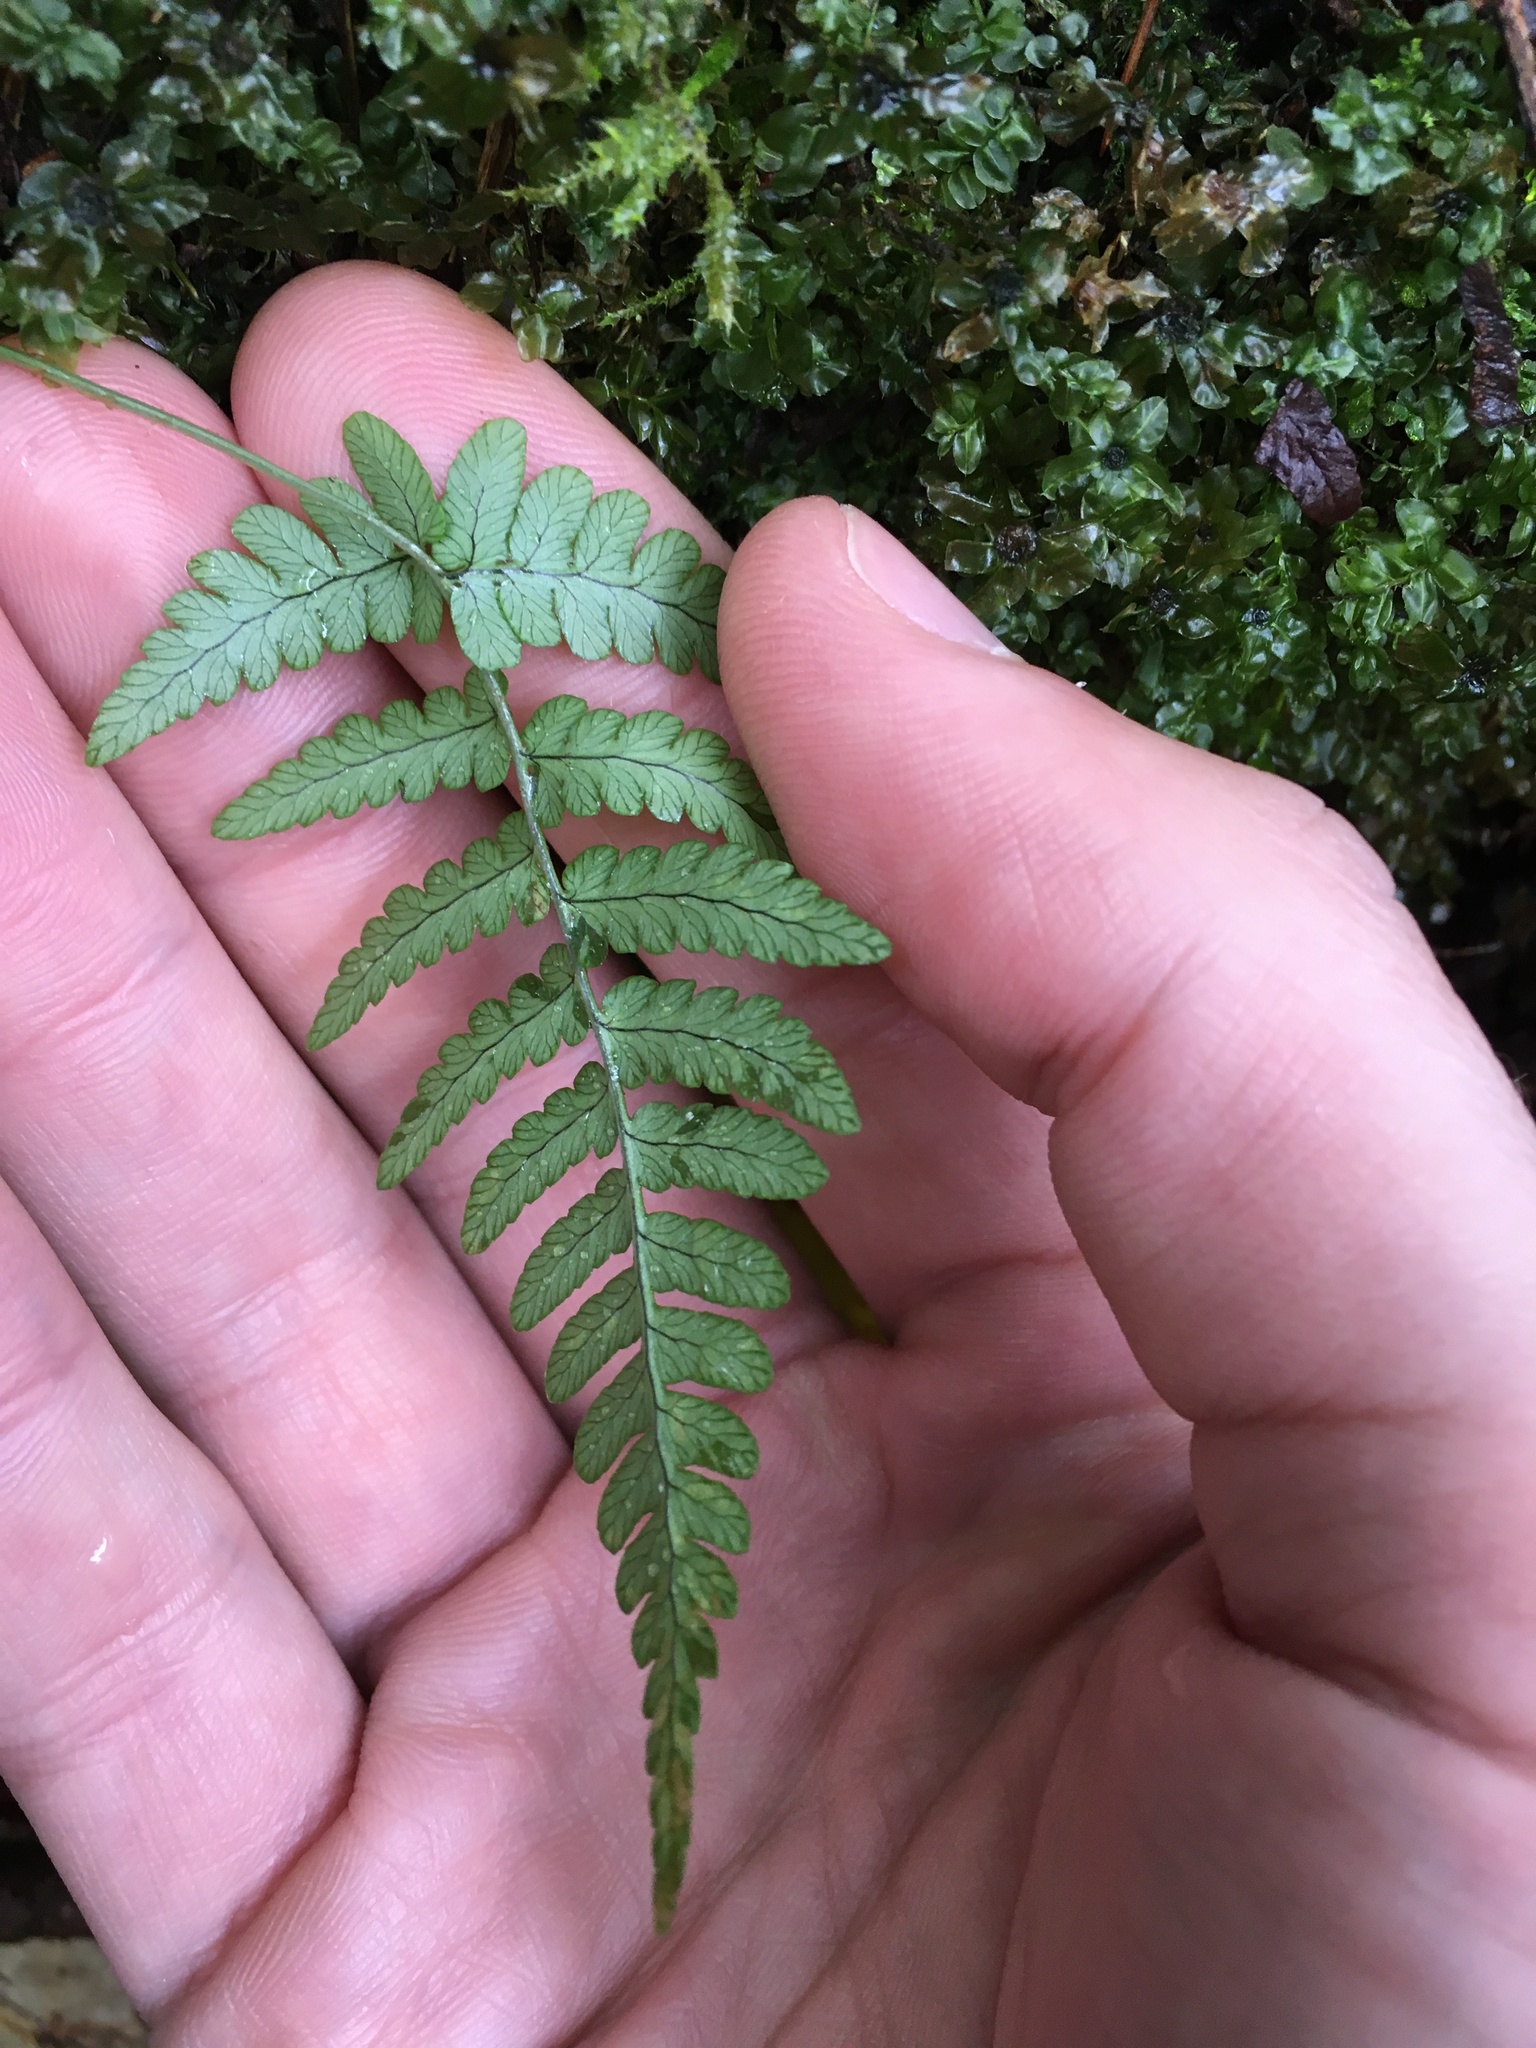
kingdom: Plantae
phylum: Tracheophyta
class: Polypodiopsida
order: Polypodiales
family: Dryopteridaceae
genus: Dryopteris
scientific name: Dryopteris marginalis
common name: Marginal wood fern
